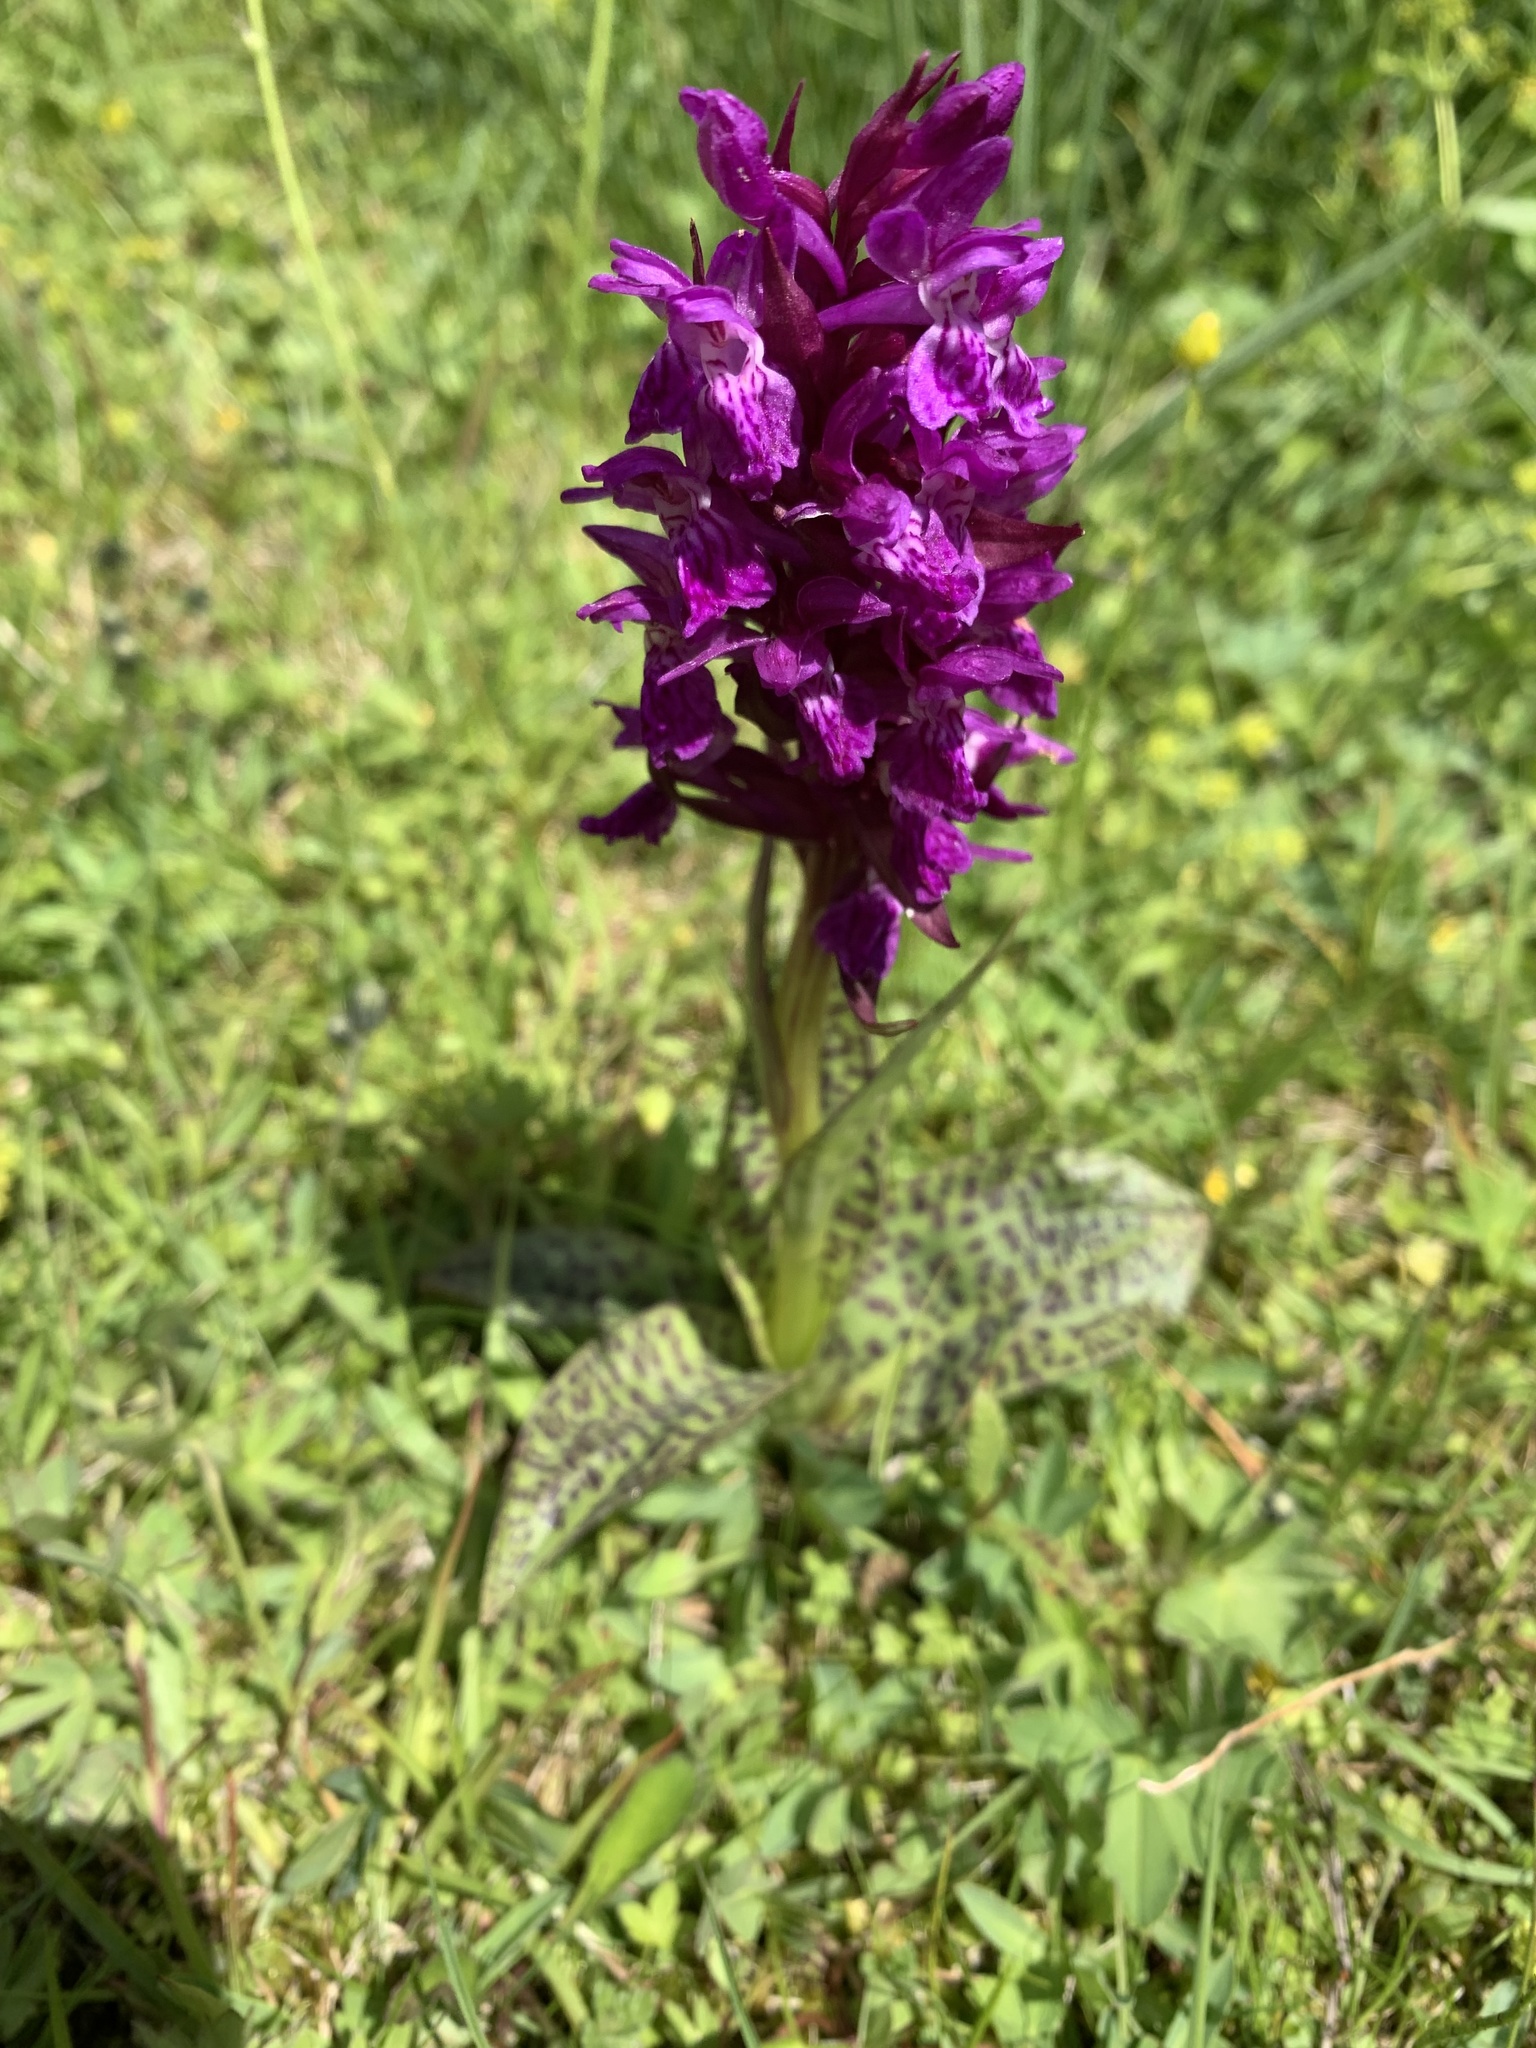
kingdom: Plantae
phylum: Tracheophyta
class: Liliopsida
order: Asparagales
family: Orchidaceae
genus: Dactylorhiza
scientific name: Dactylorhiza majalis
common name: Marsh orchid
